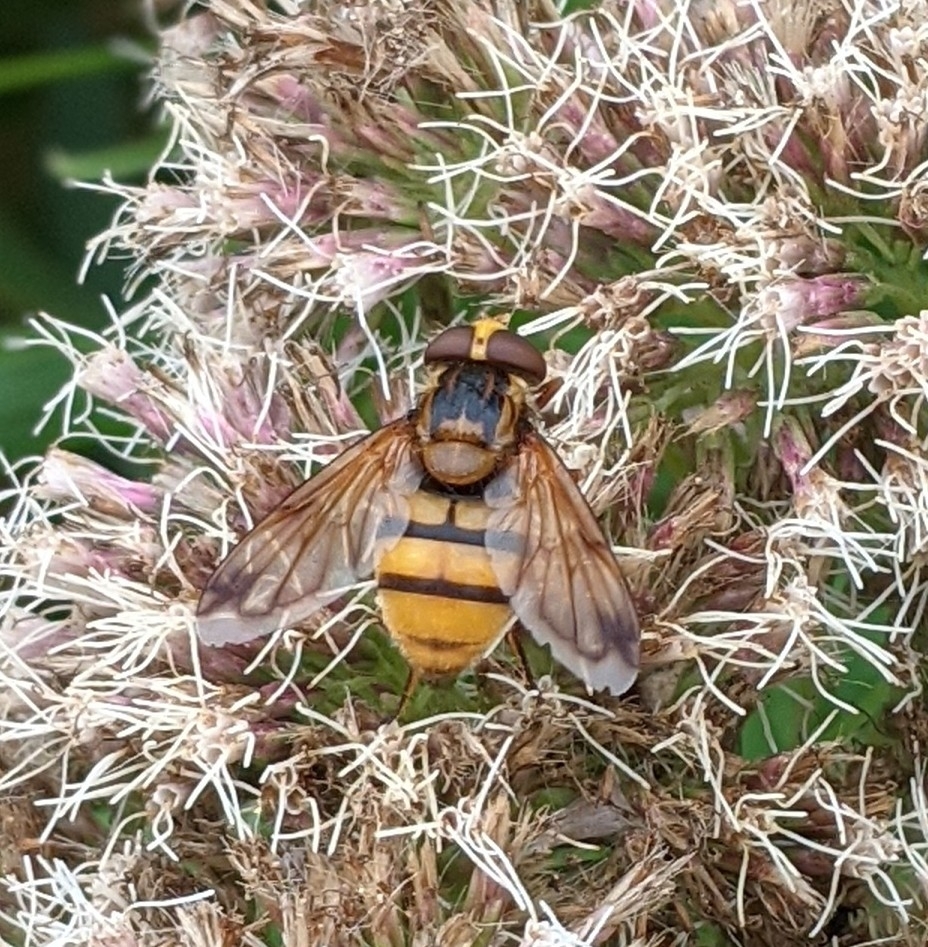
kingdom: Animalia
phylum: Arthropoda
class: Insecta
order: Diptera
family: Syrphidae
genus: Volucella
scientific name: Volucella inanis
